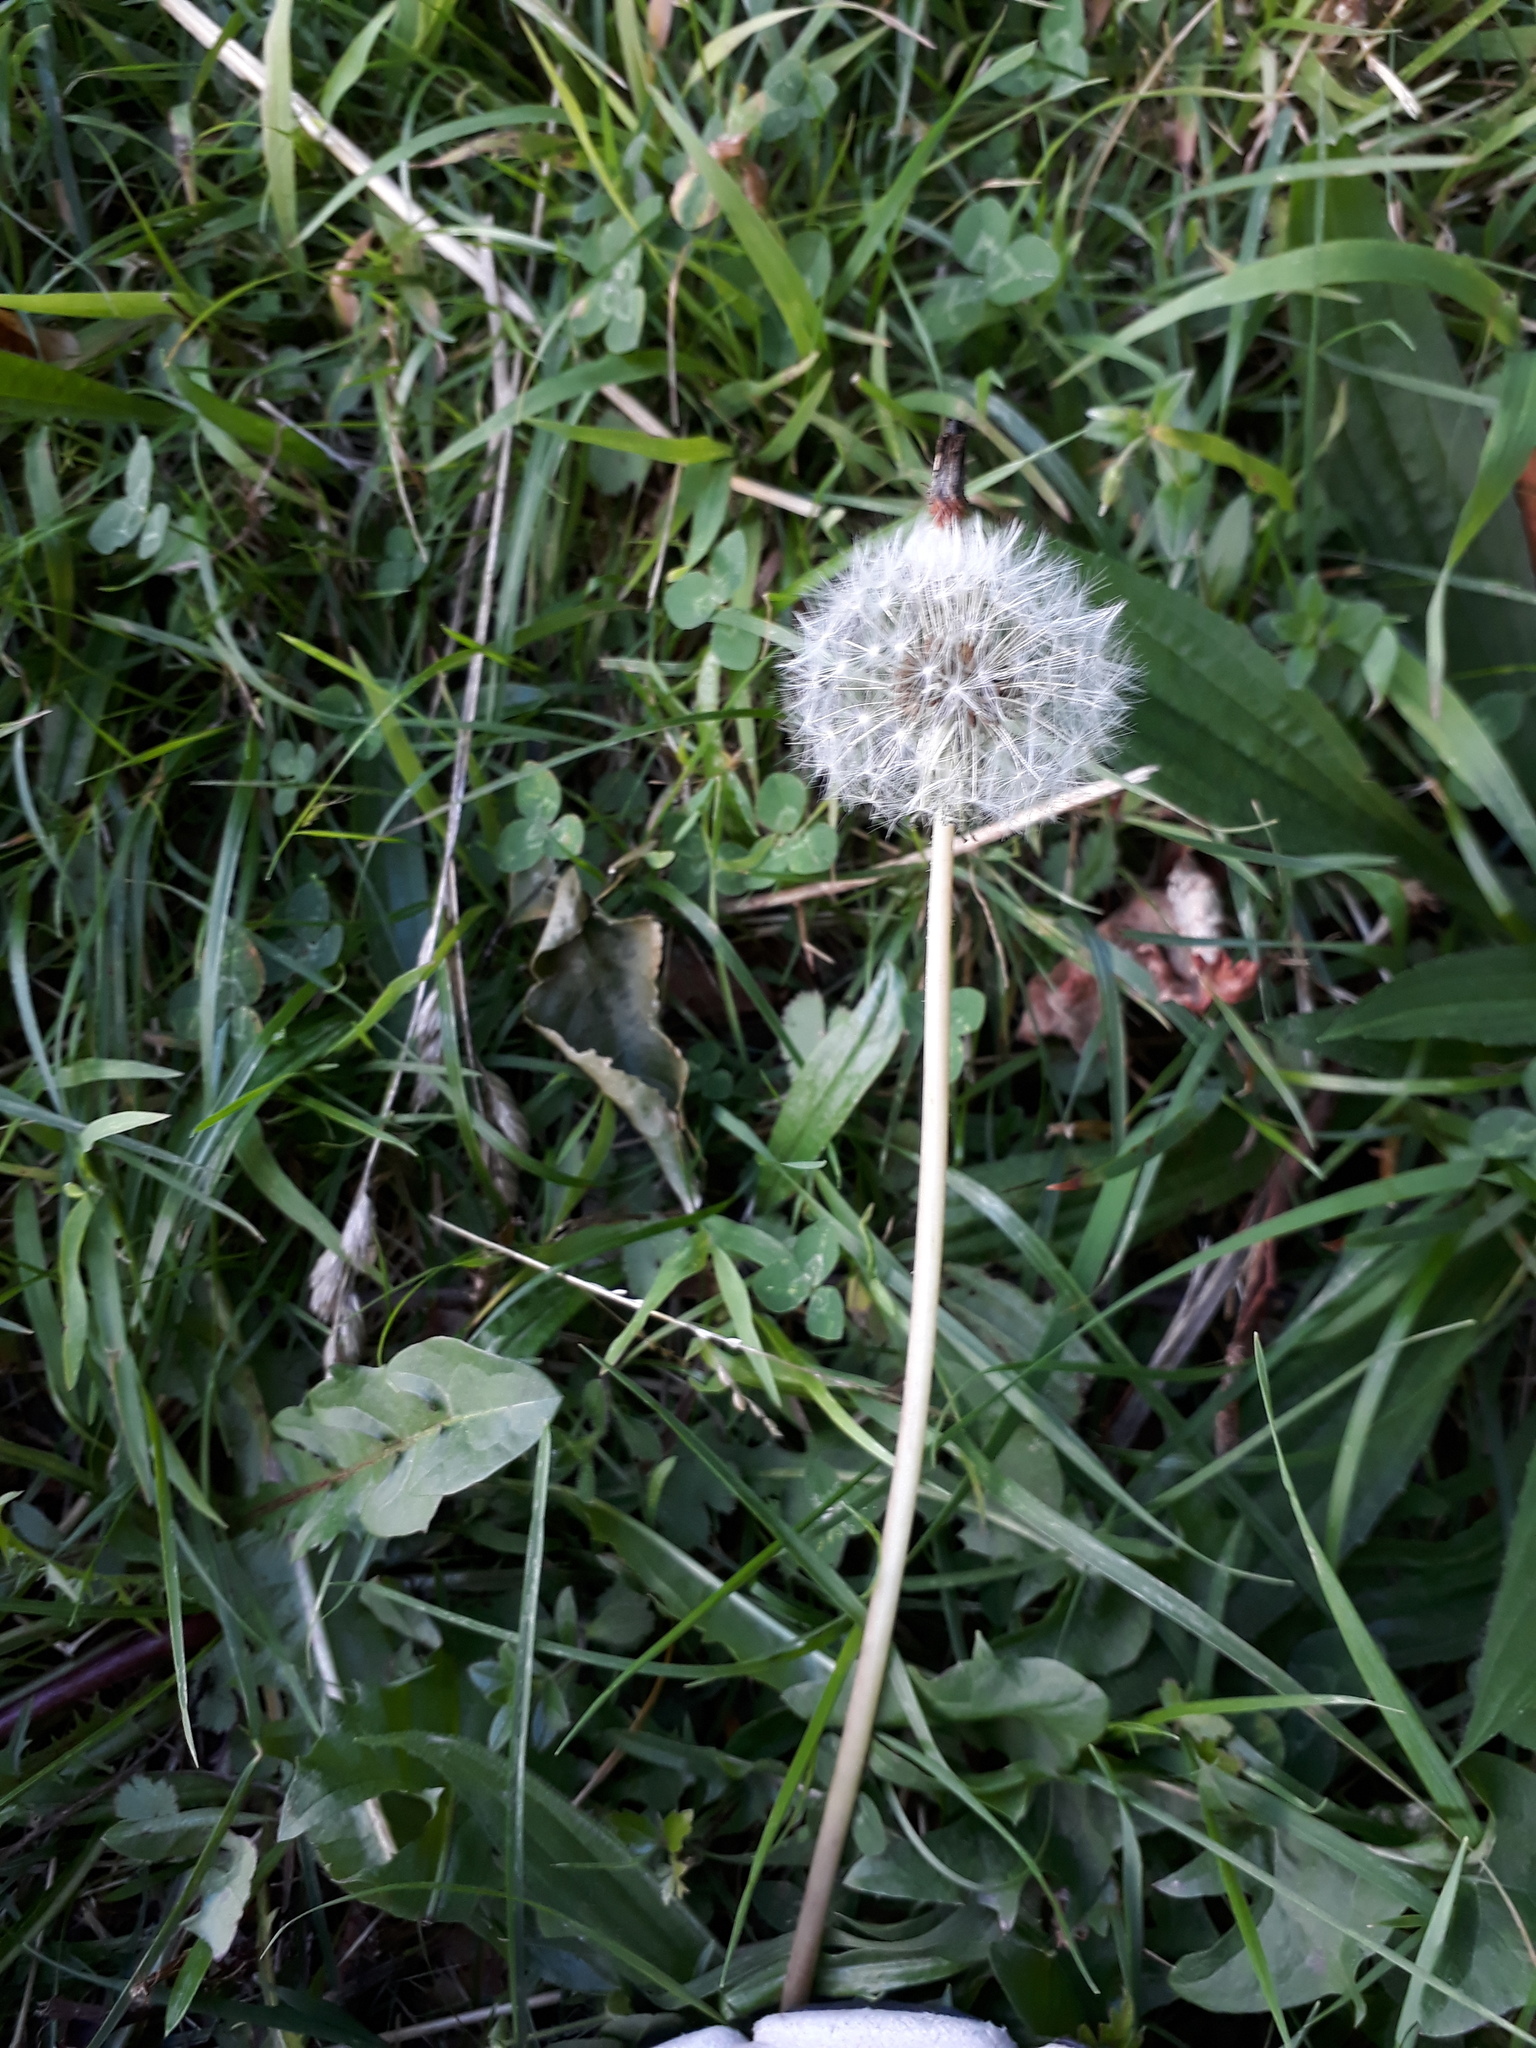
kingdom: Plantae
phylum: Tracheophyta
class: Magnoliopsida
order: Asterales
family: Asteraceae
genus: Taraxacum
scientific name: Taraxacum officinale
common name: Common dandelion
